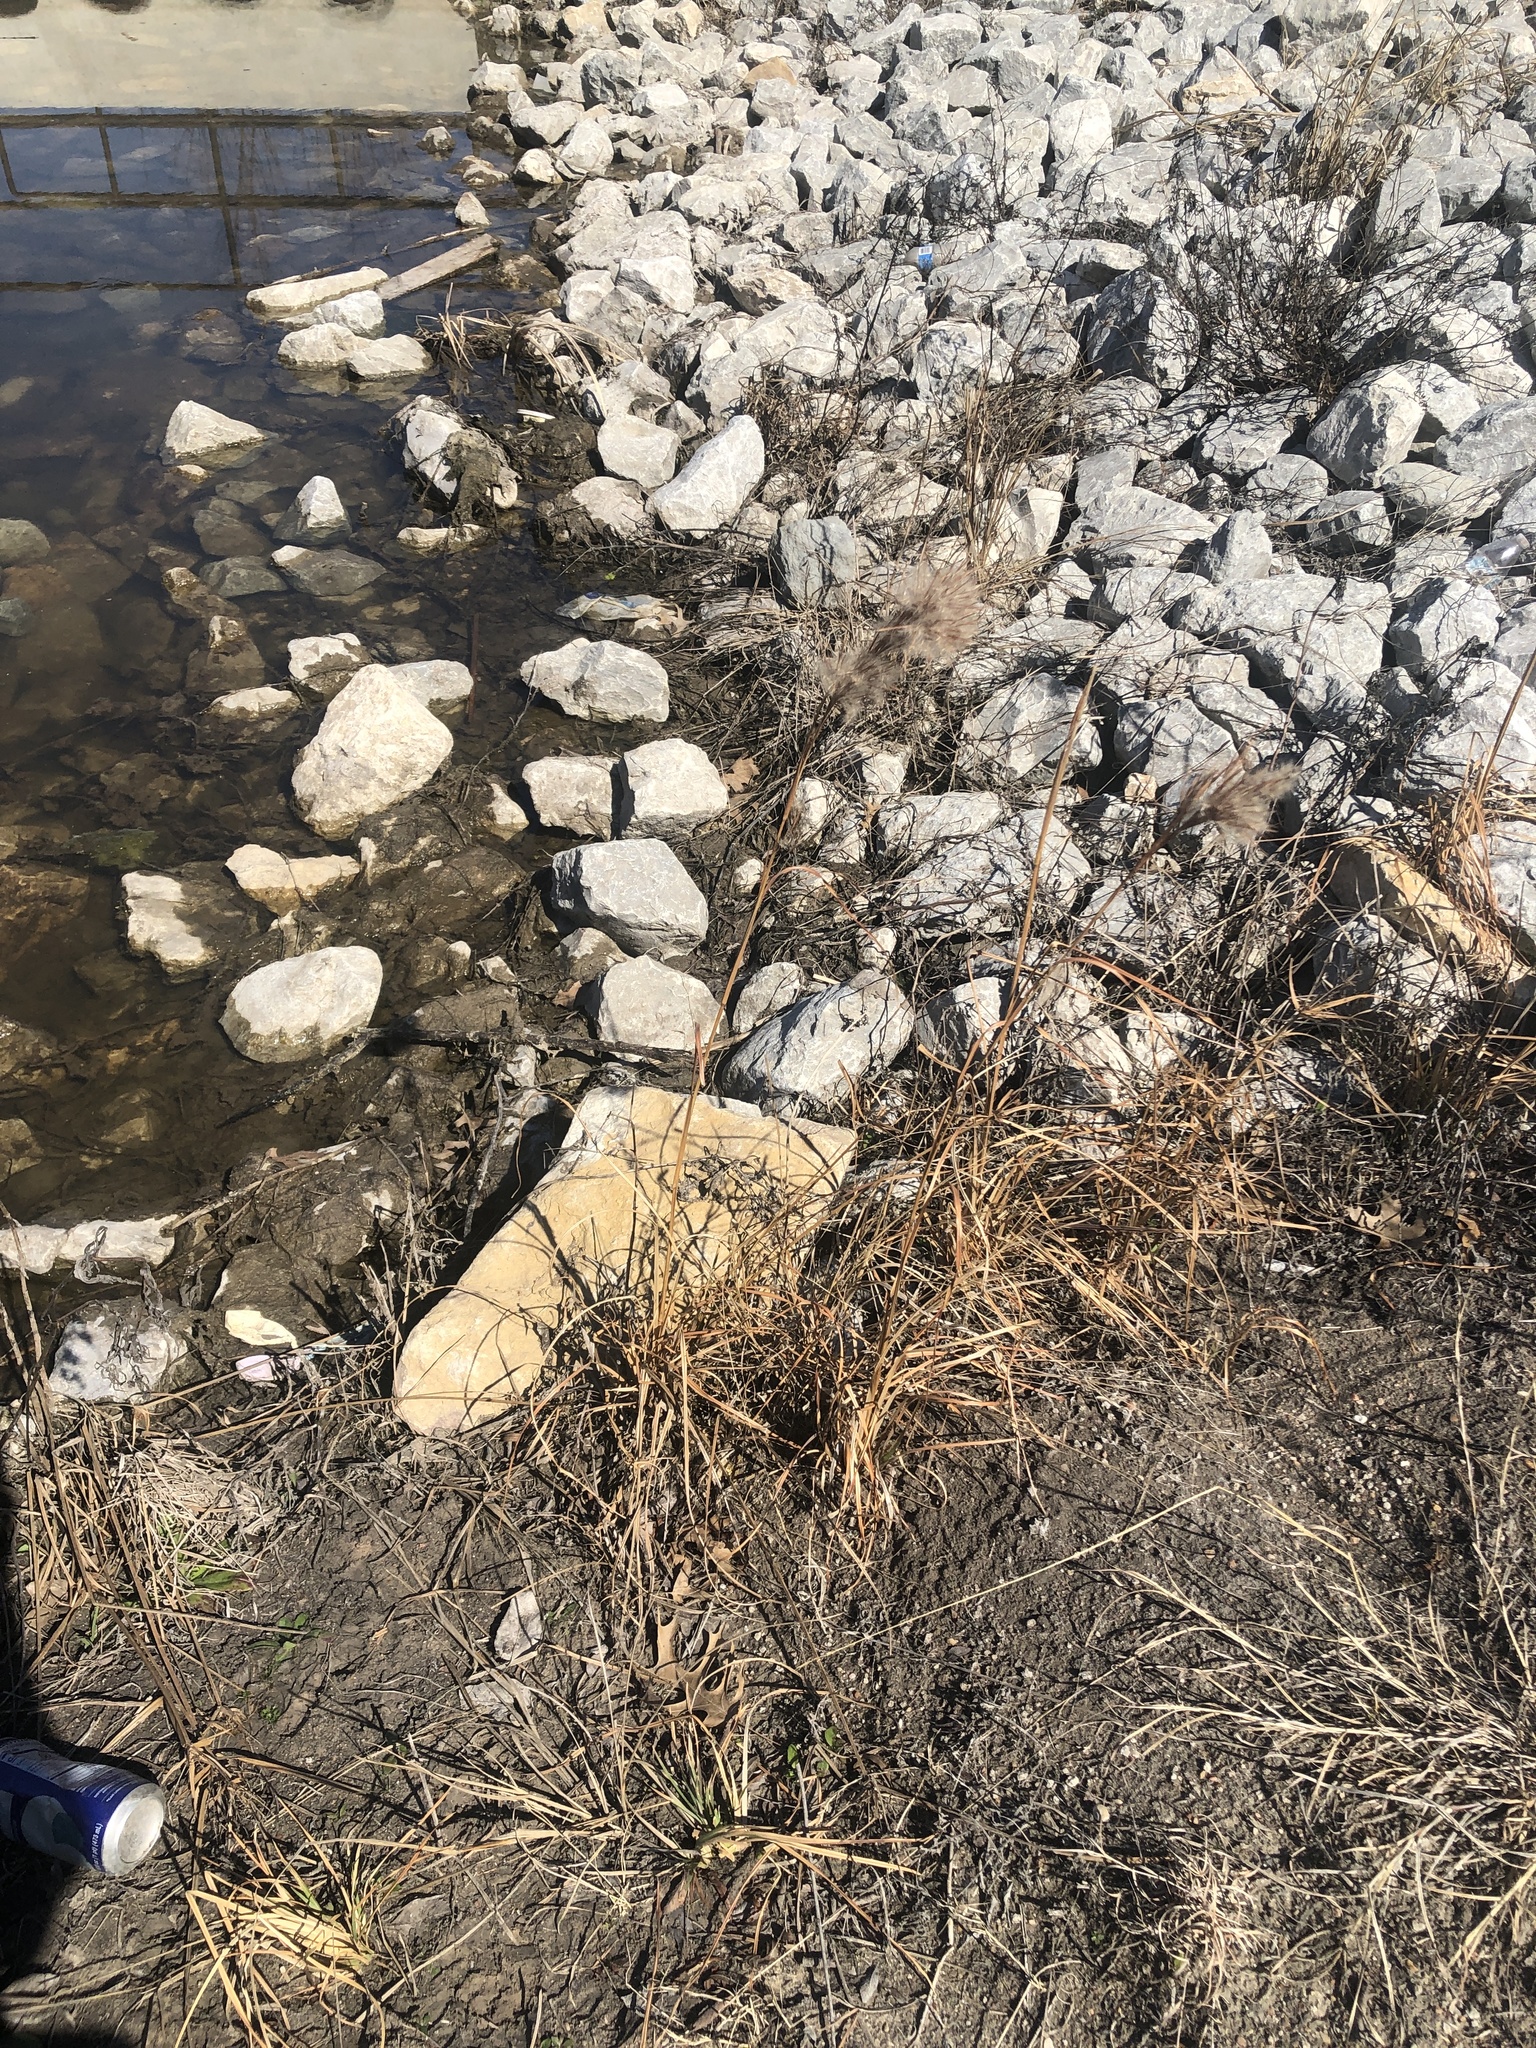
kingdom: Plantae
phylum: Tracheophyta
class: Liliopsida
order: Poales
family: Poaceae
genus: Andropogon
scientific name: Andropogon tenuispatheus
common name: Bushy bluestem
